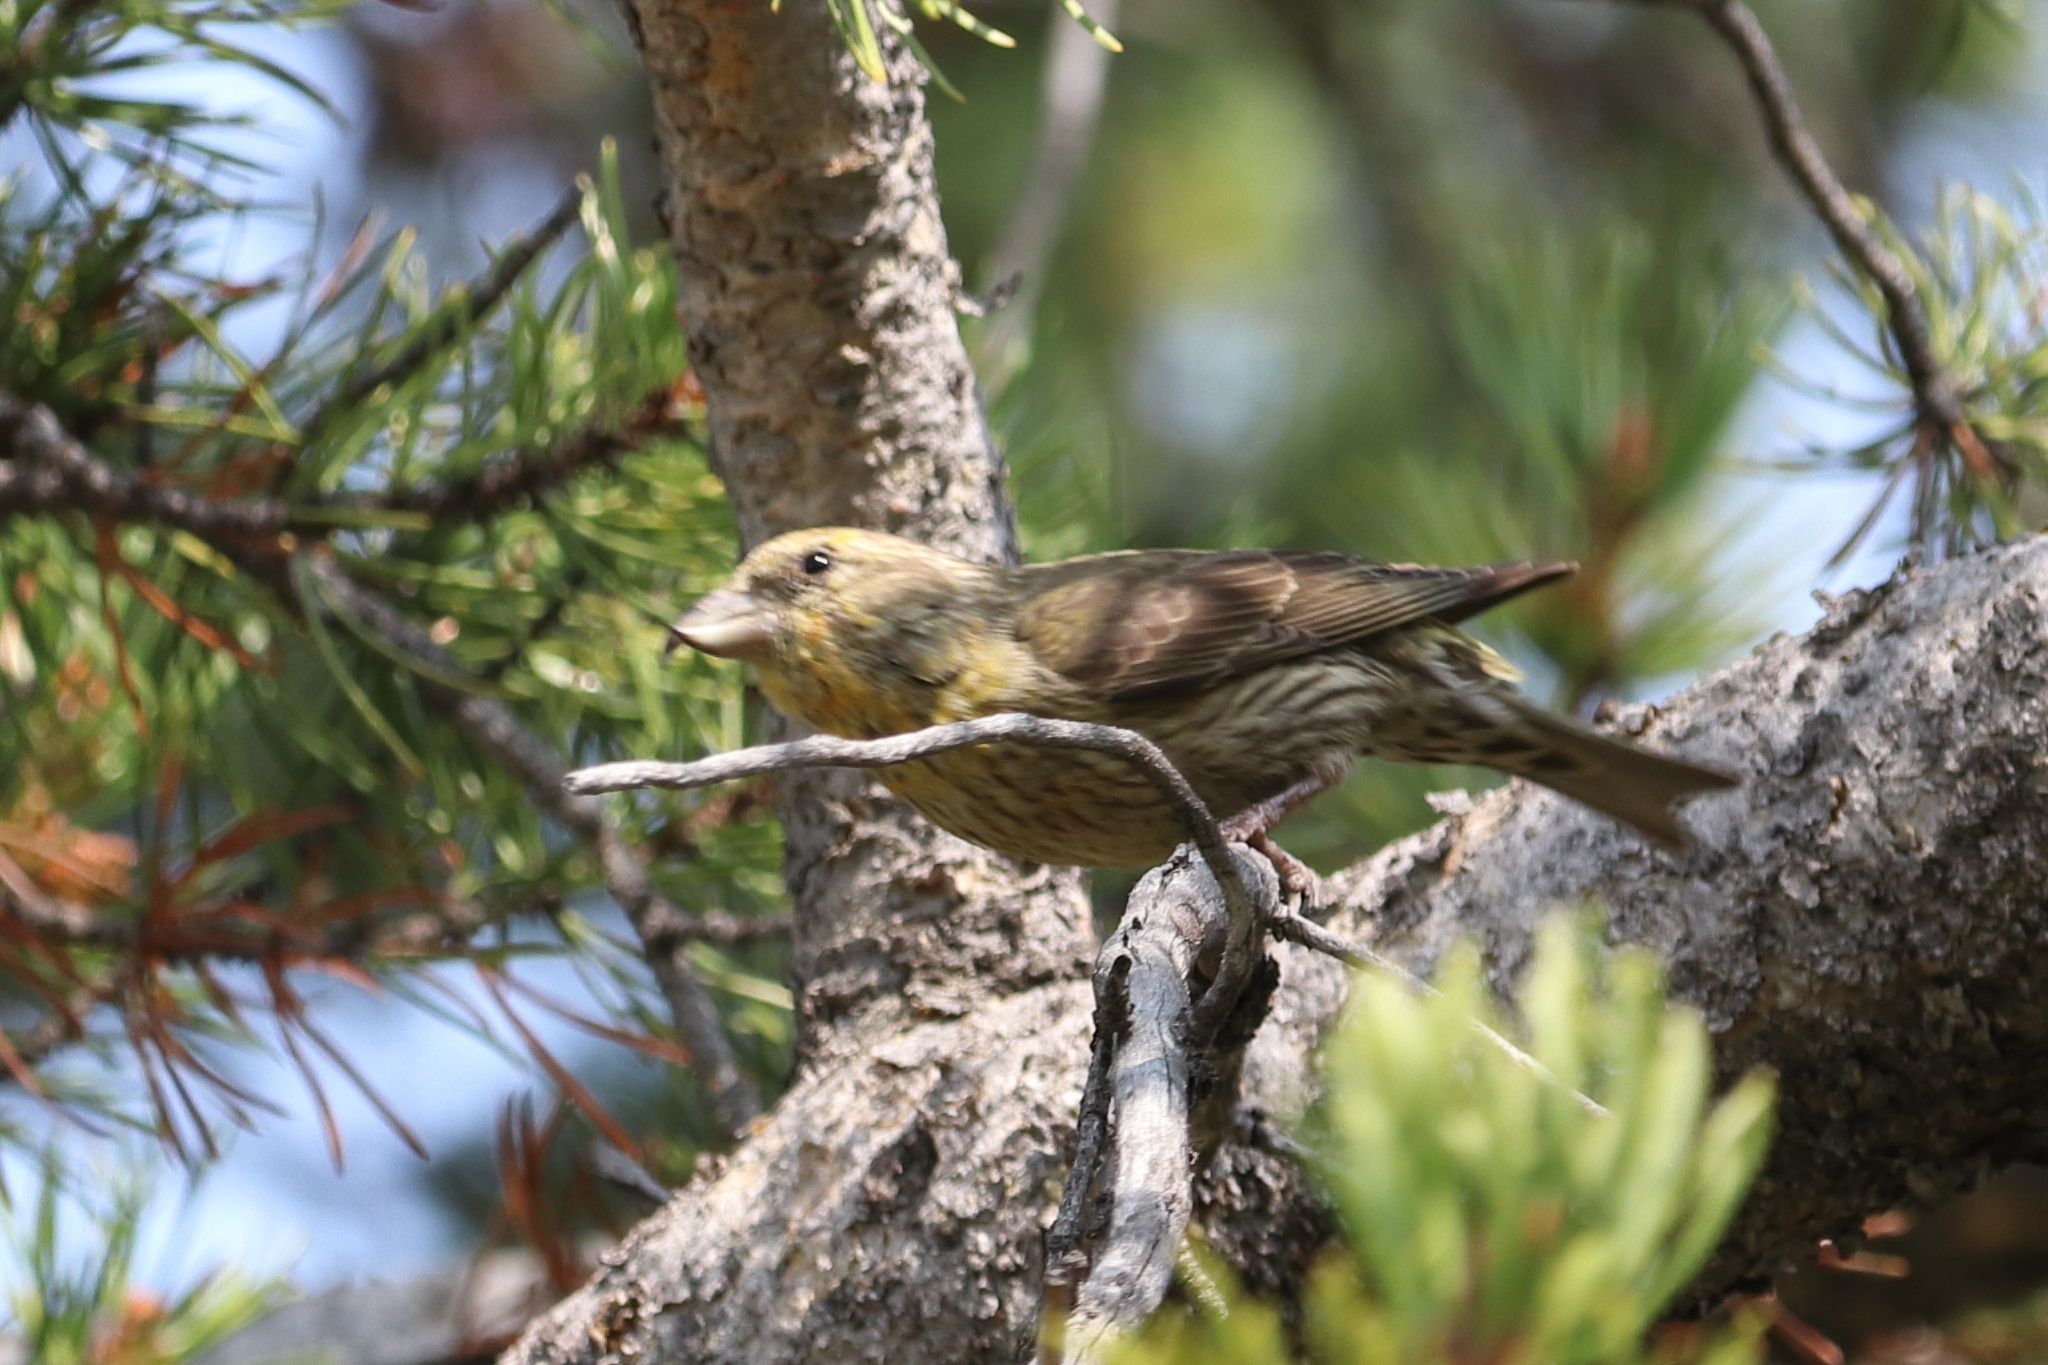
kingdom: Animalia
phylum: Chordata
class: Aves
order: Passeriformes
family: Fringillidae
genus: Loxia
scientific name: Loxia curvirostra
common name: Red crossbill
